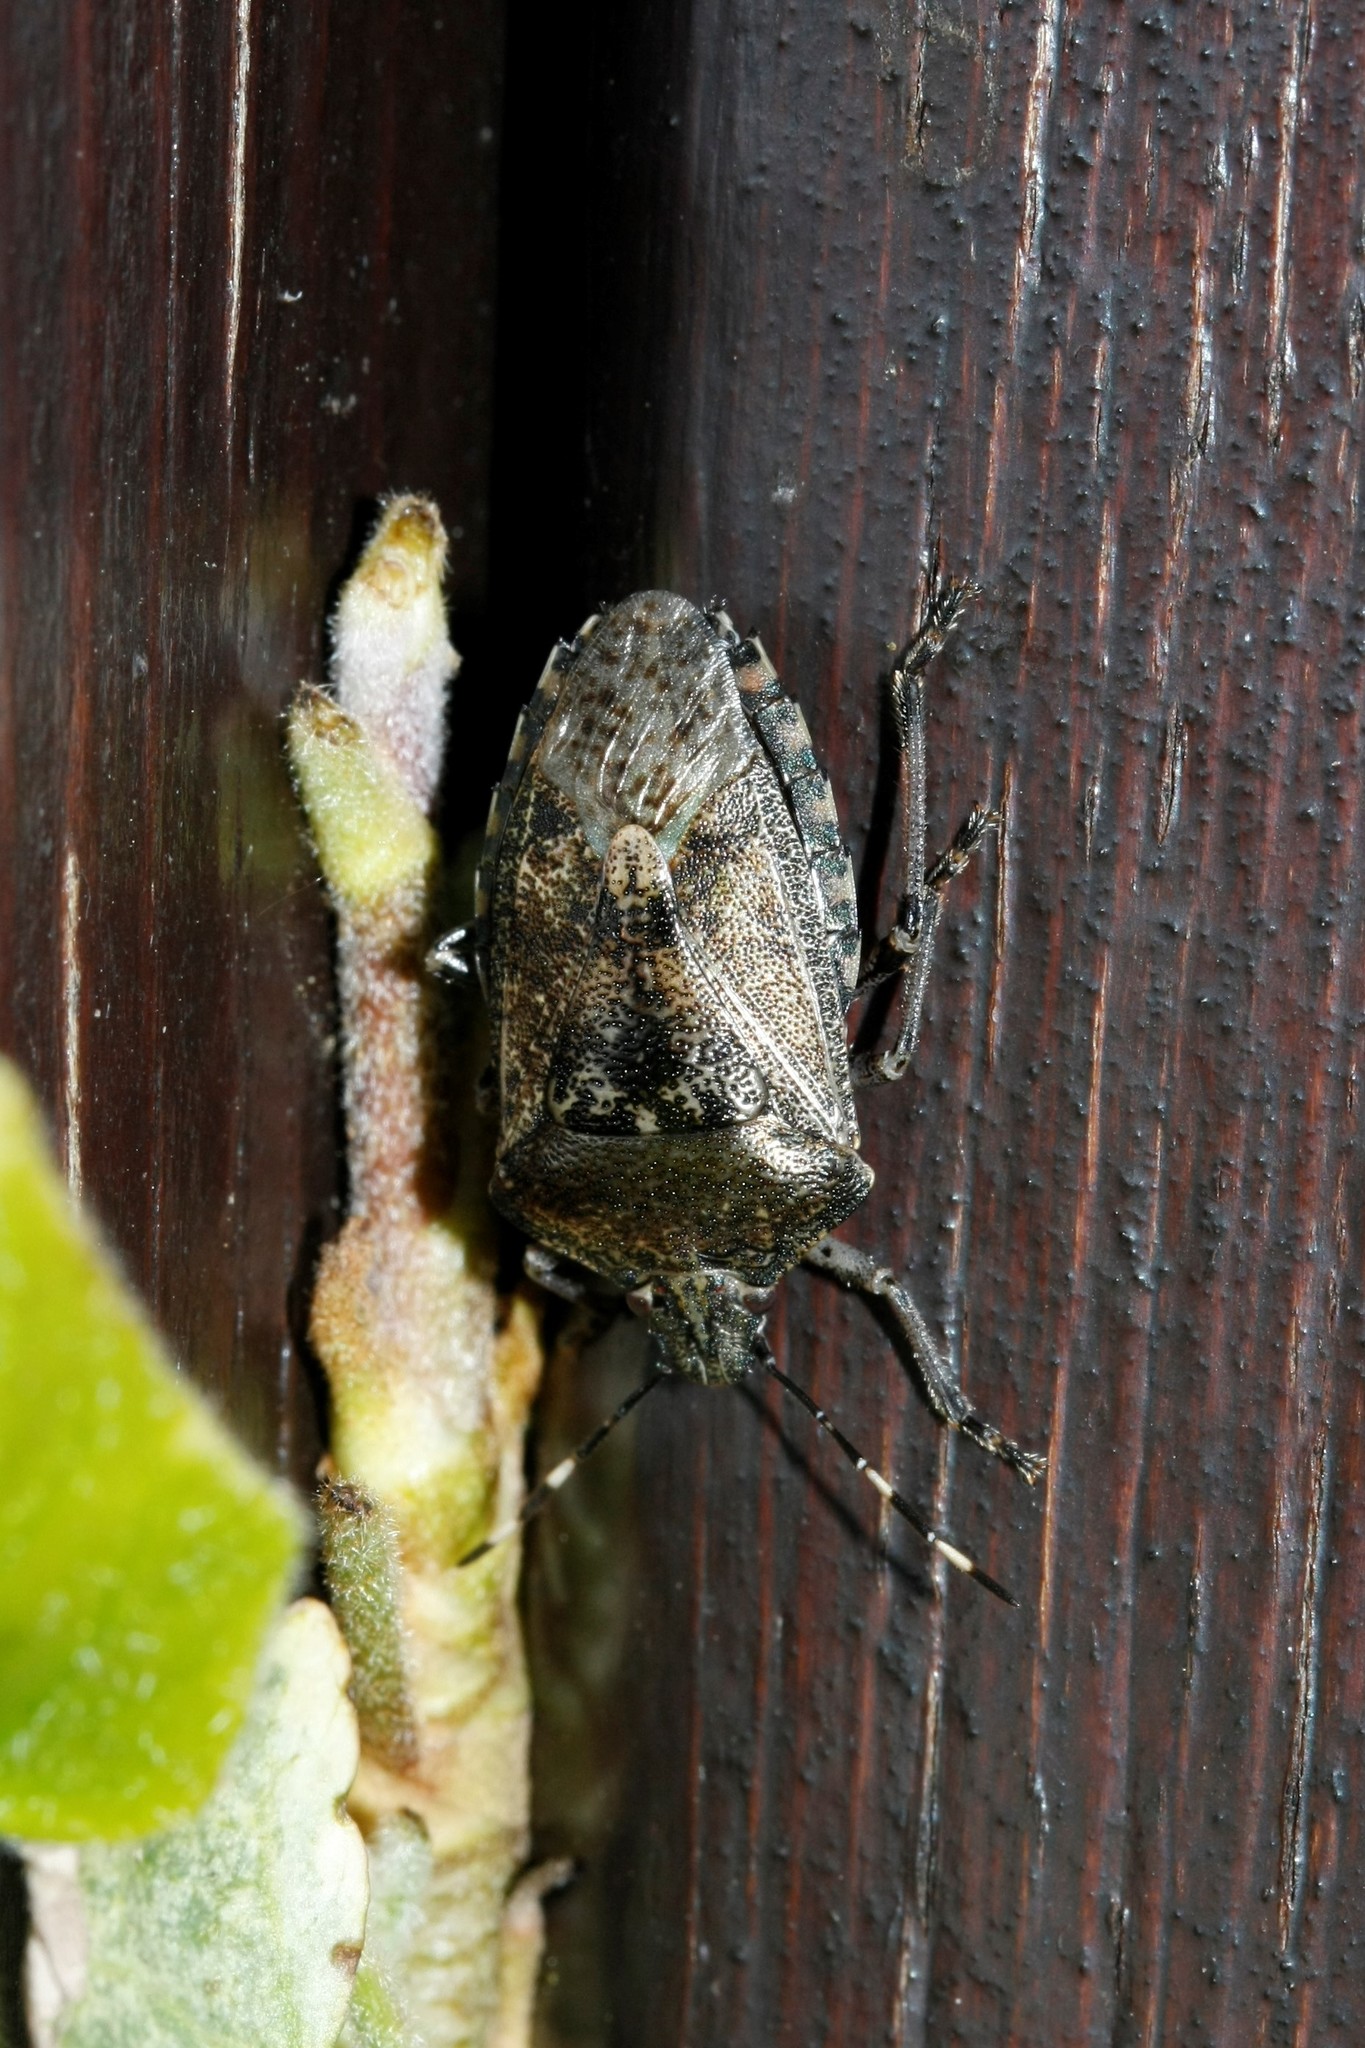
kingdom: Animalia
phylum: Arthropoda
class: Insecta
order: Hemiptera
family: Pentatomidae
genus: Rhaphigaster
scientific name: Rhaphigaster nebulosa
